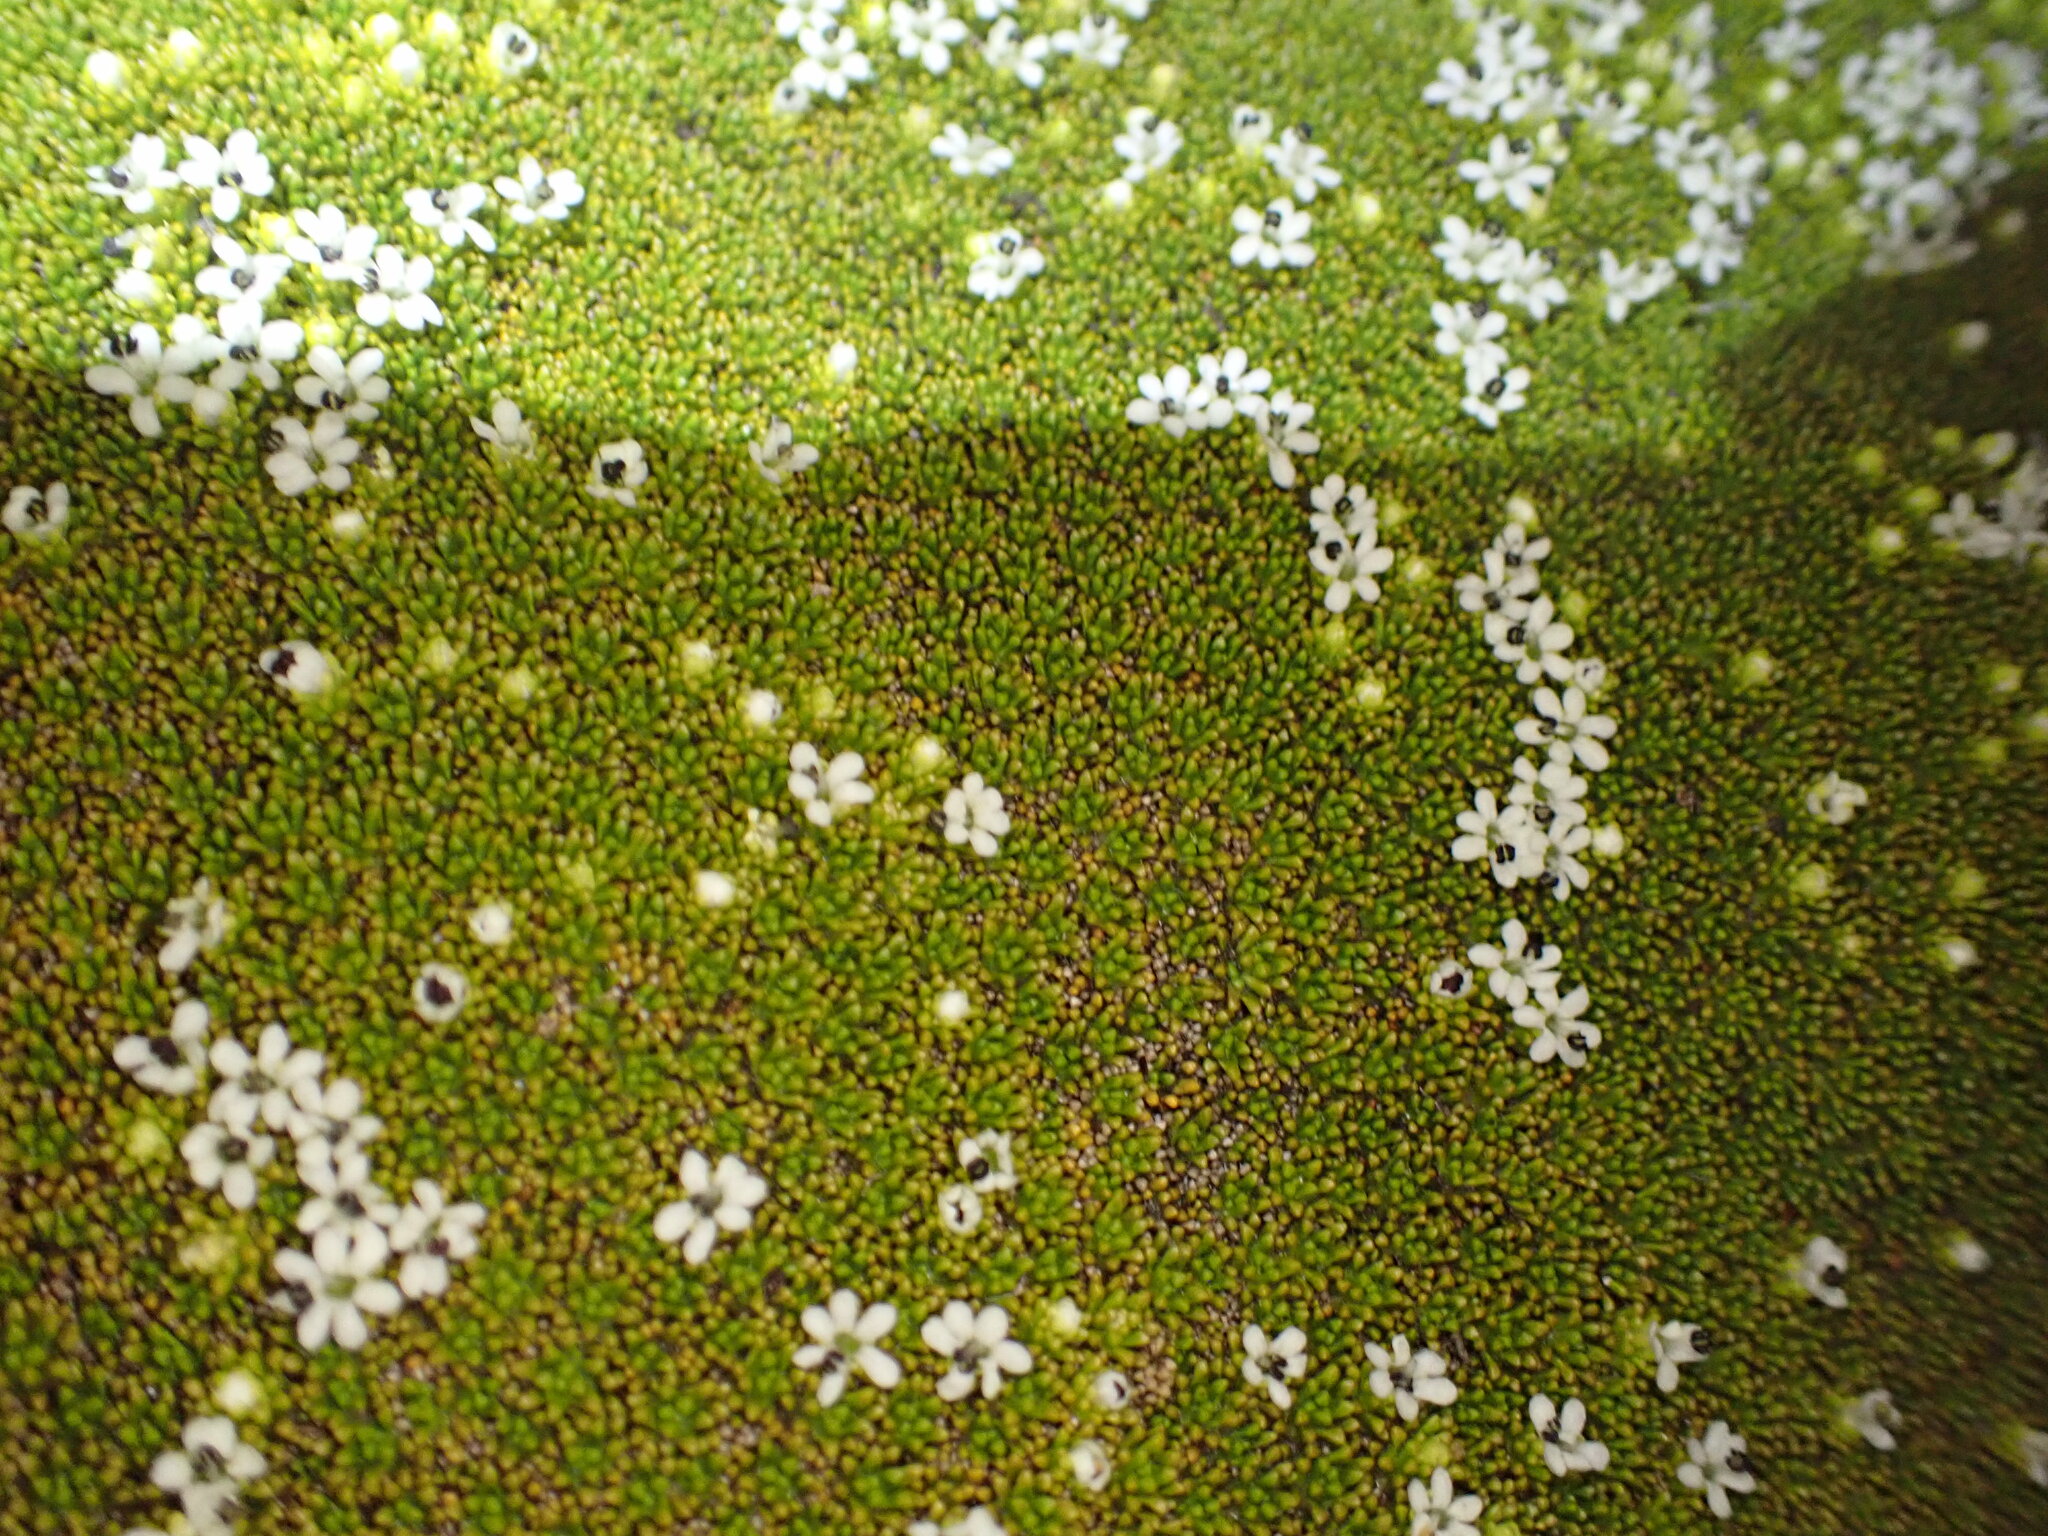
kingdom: Plantae
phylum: Tracheophyta
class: Magnoliopsida
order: Asterales
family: Stylidiaceae
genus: Phyllachne
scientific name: Phyllachne colensoi
